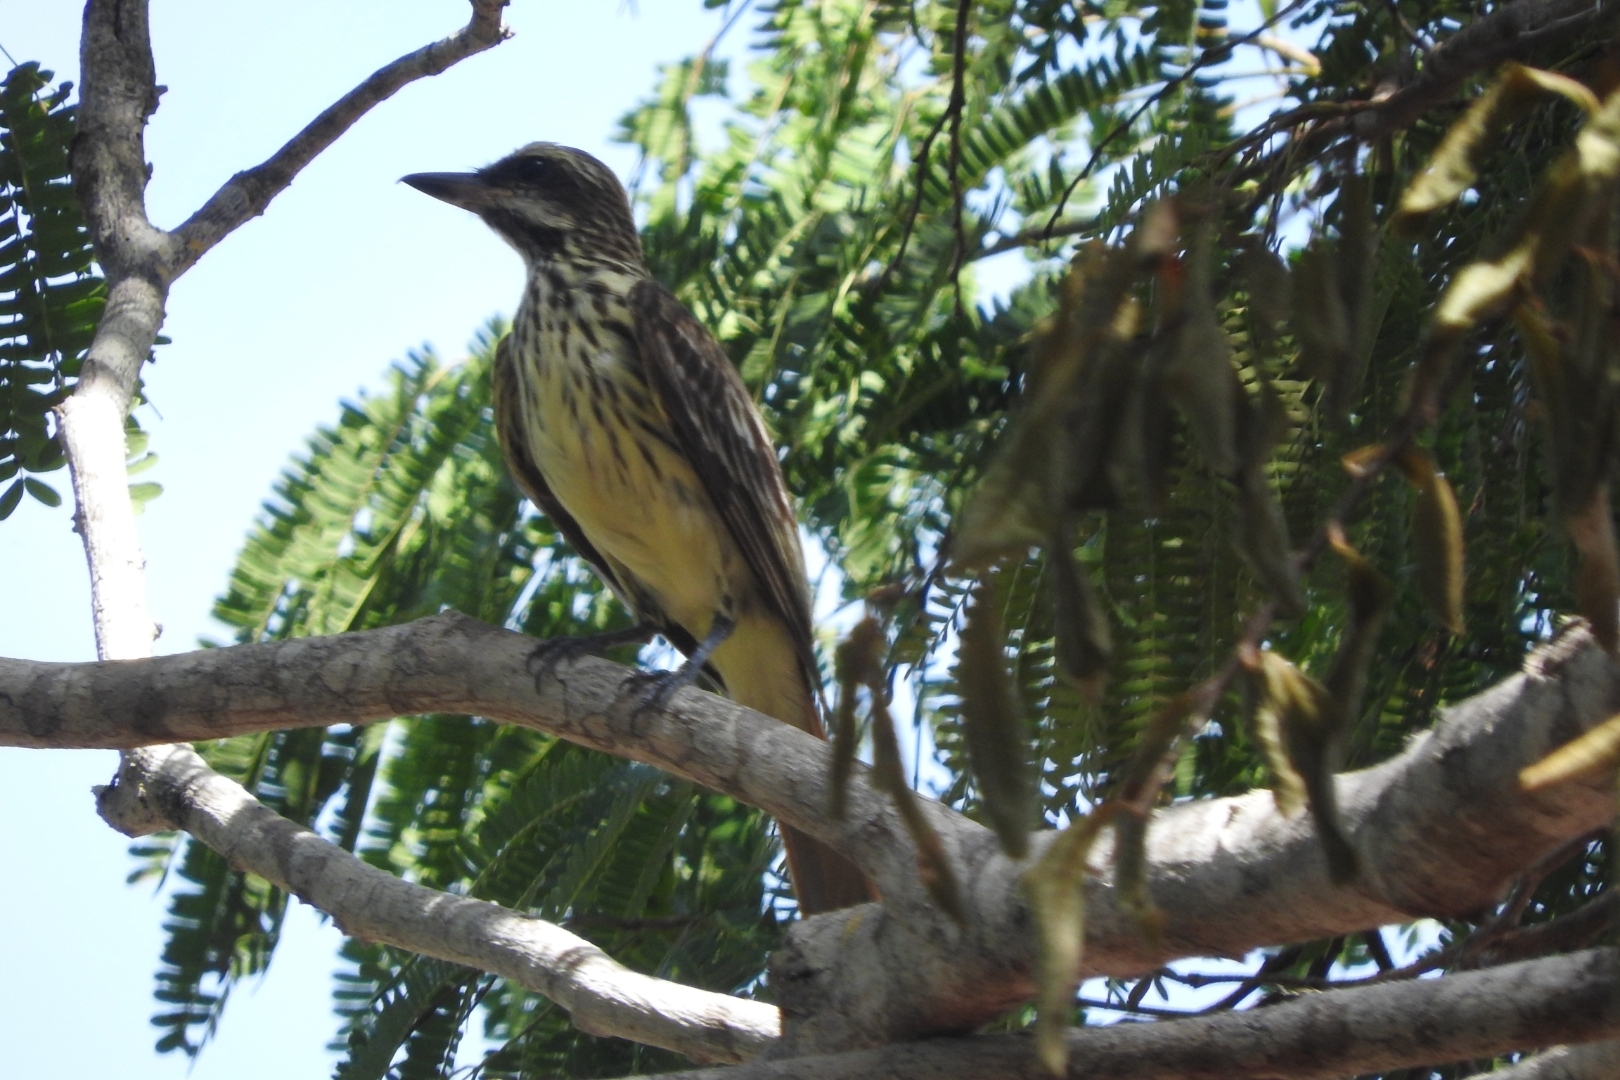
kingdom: Animalia
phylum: Chordata
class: Aves
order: Passeriformes
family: Tyrannidae
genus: Myiodynastes
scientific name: Myiodynastes luteiventris
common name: Sulphur-bellied flycatcher
